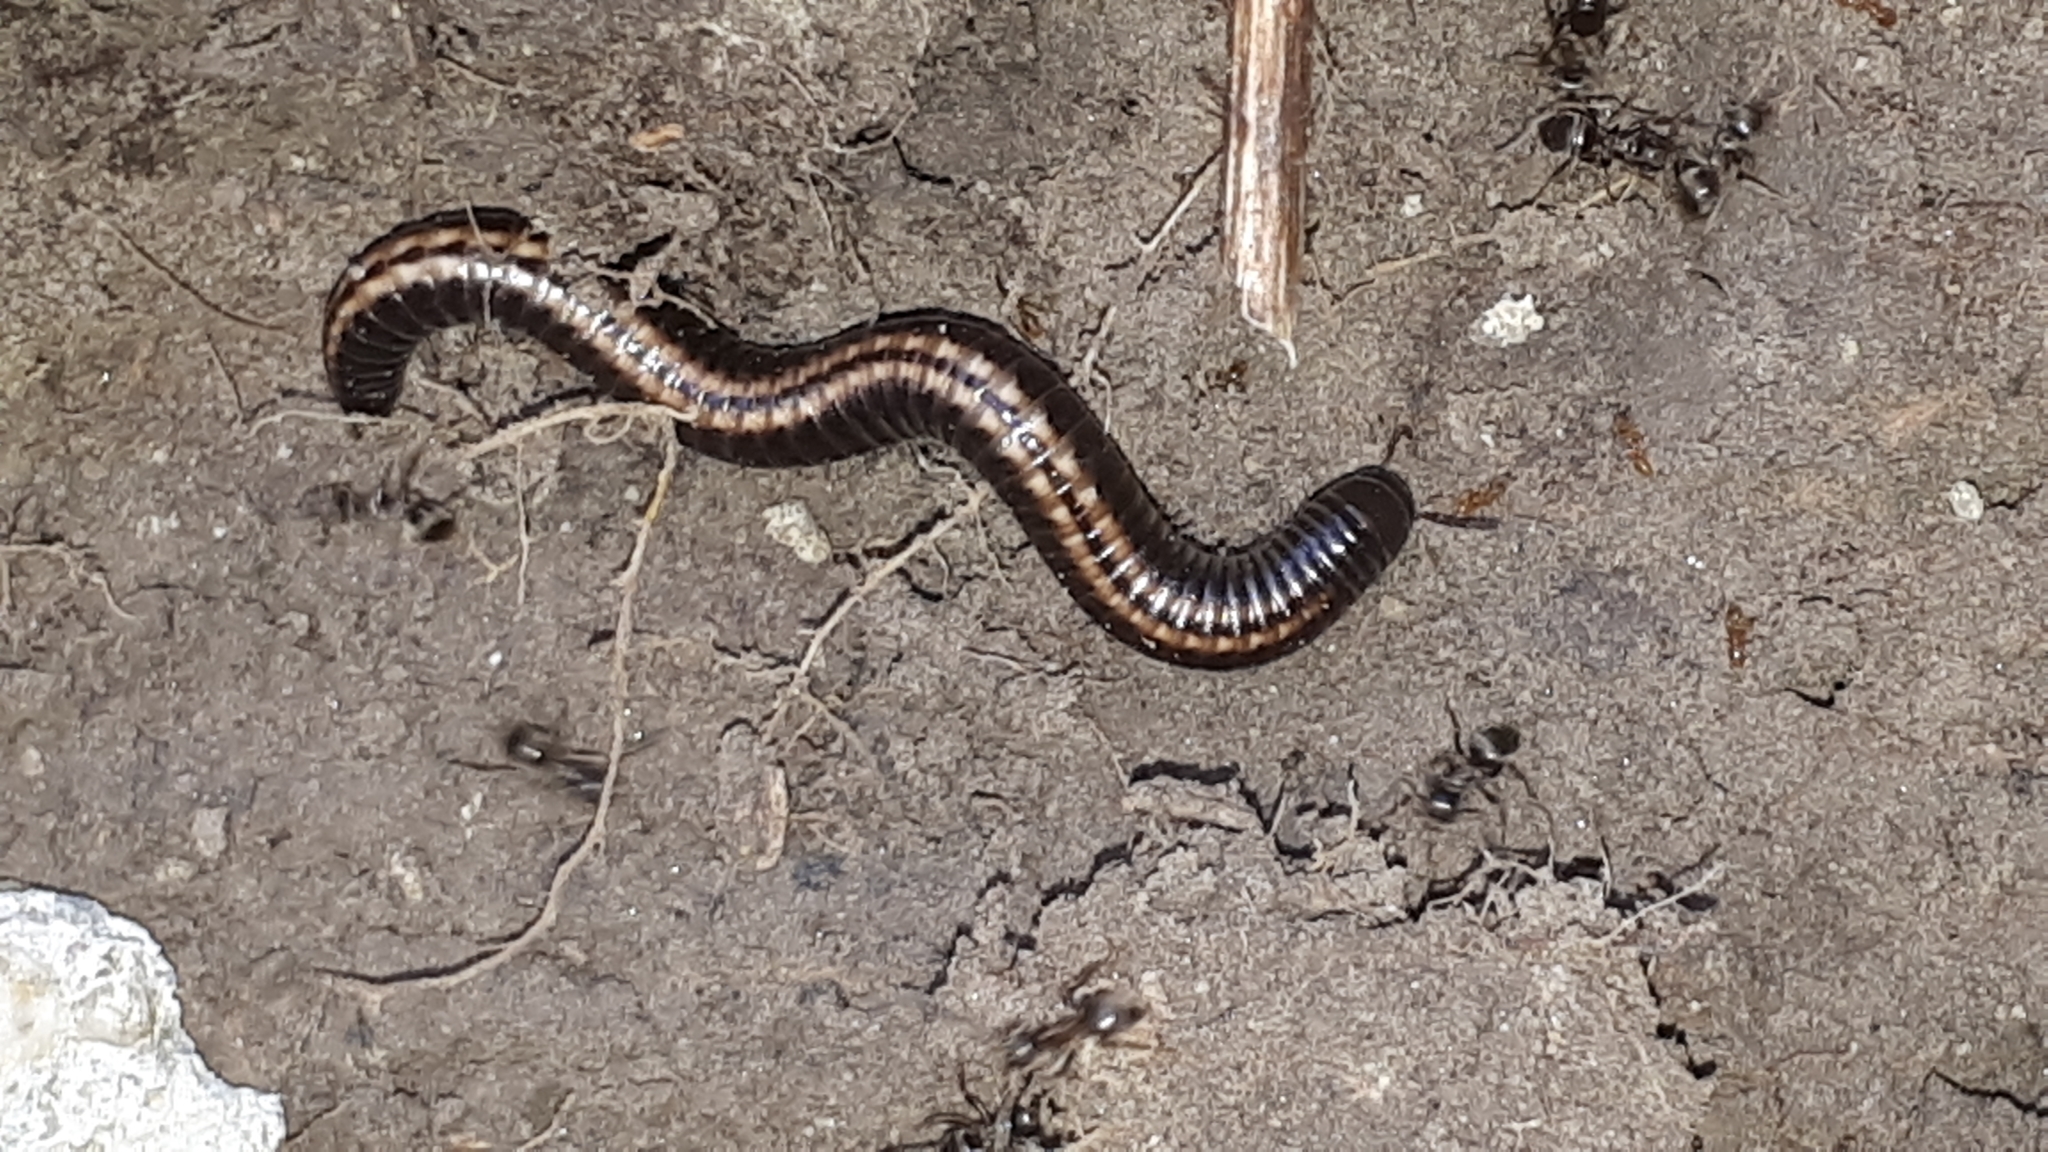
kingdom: Animalia
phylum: Arthropoda
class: Diplopoda
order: Julida
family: Julidae
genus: Ommatoiulus
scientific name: Ommatoiulus sabulosus
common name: Striped millipede
